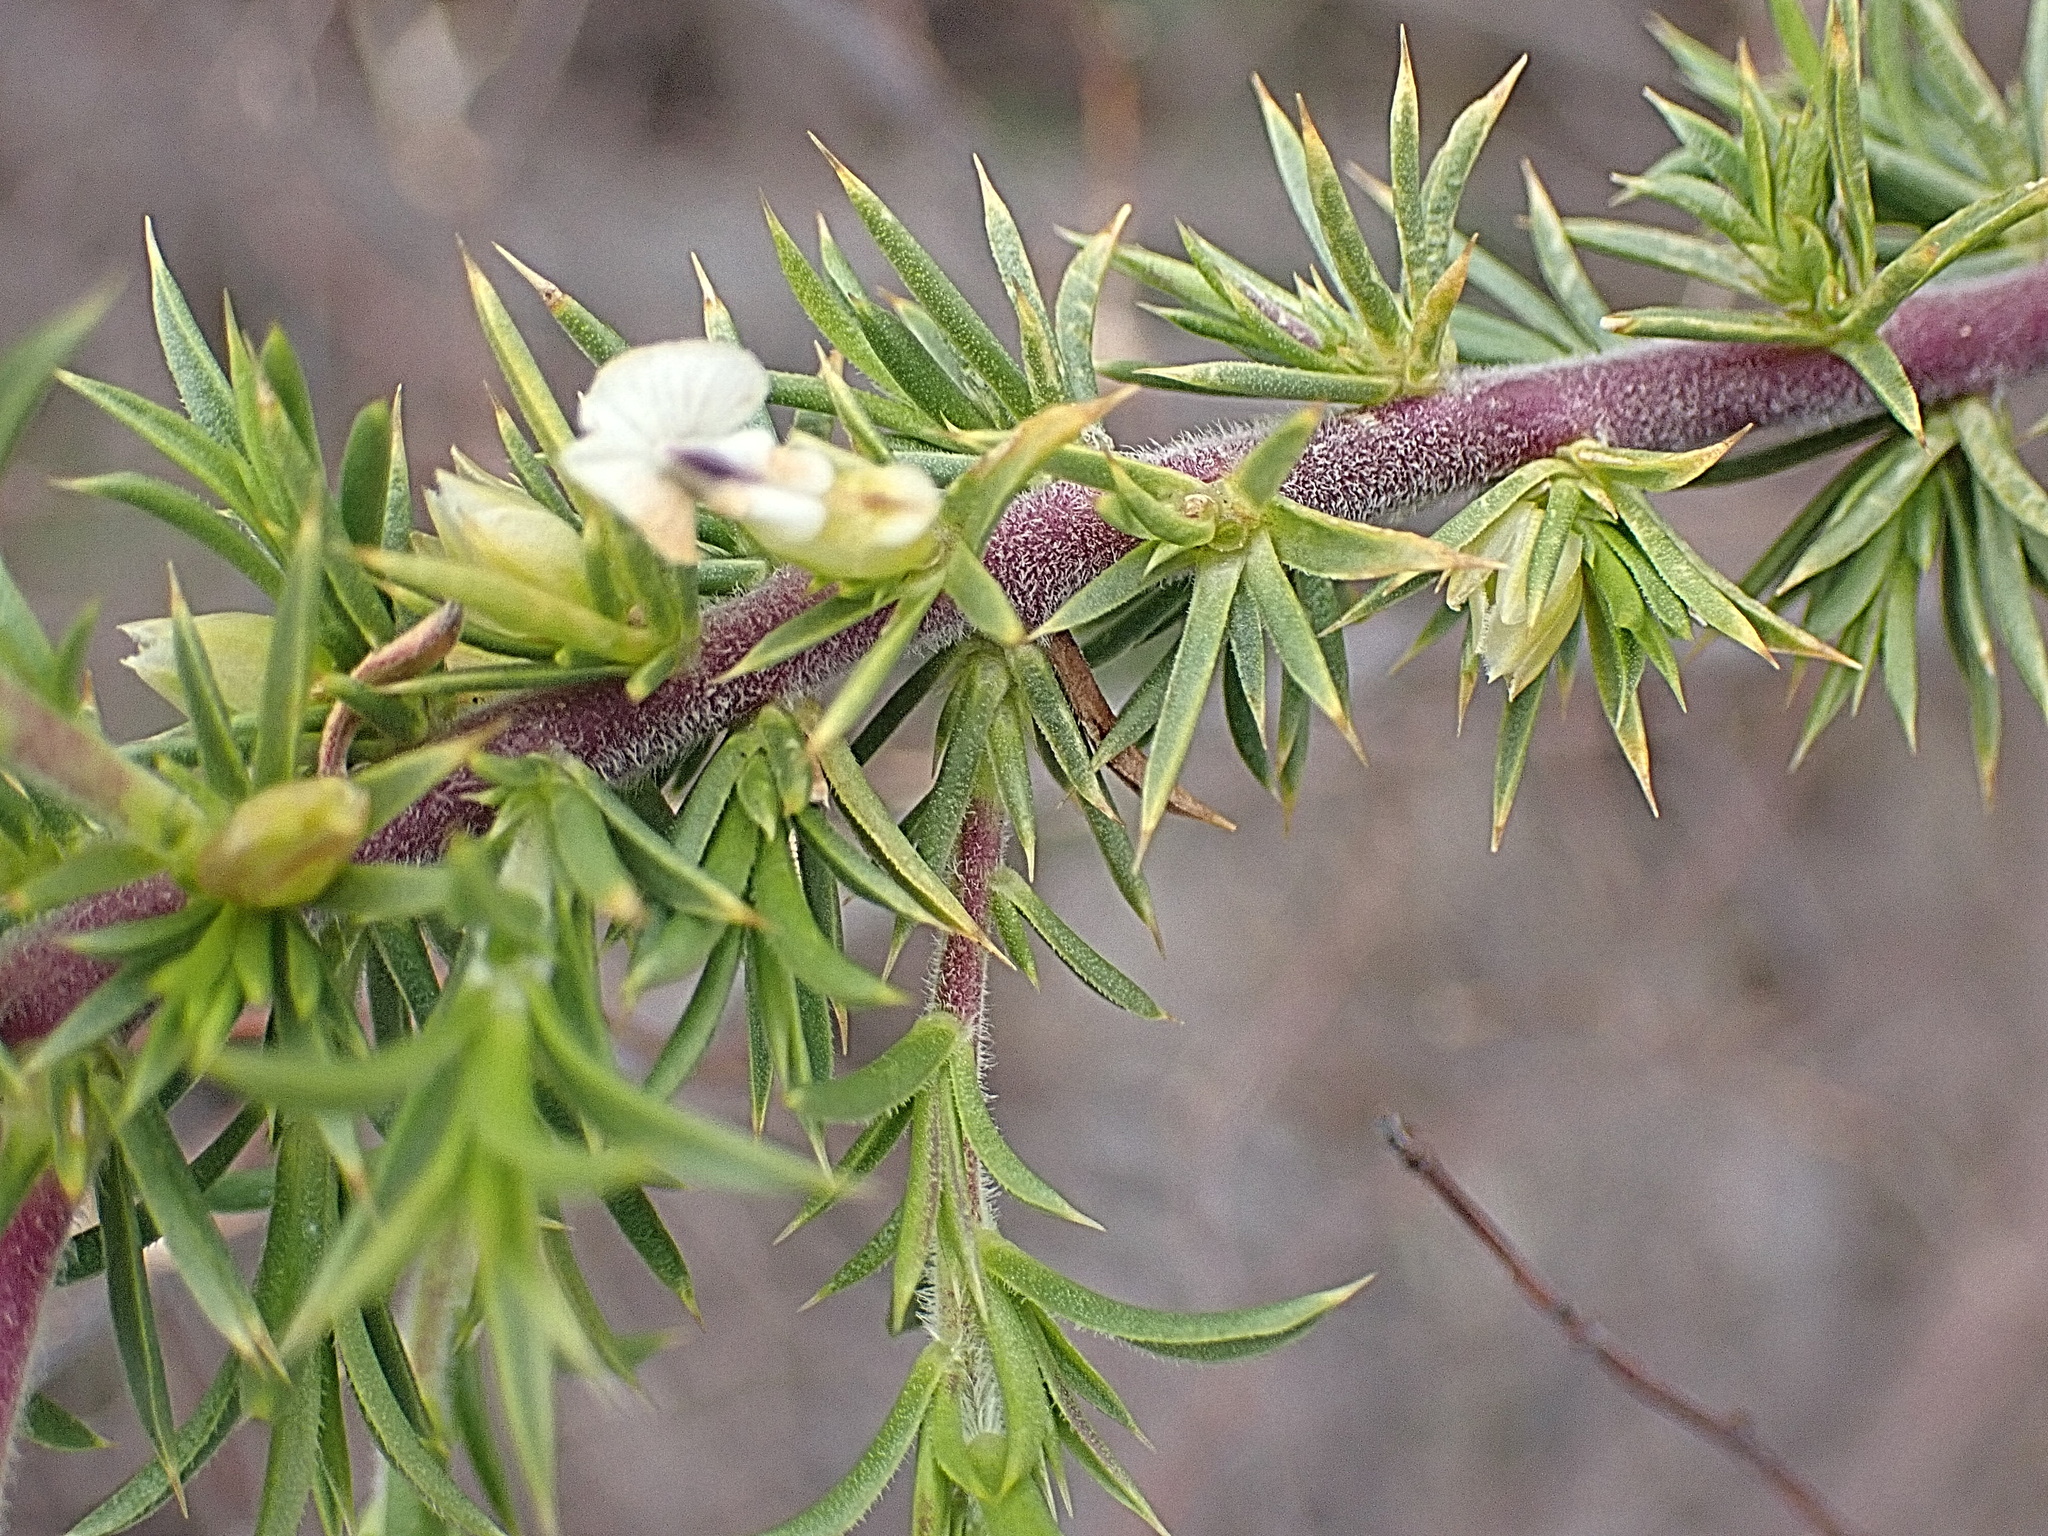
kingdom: Plantae
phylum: Tracheophyta
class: Magnoliopsida
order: Fabales
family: Polygalaceae
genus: Muraltia
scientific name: Muraltia ericifolia
